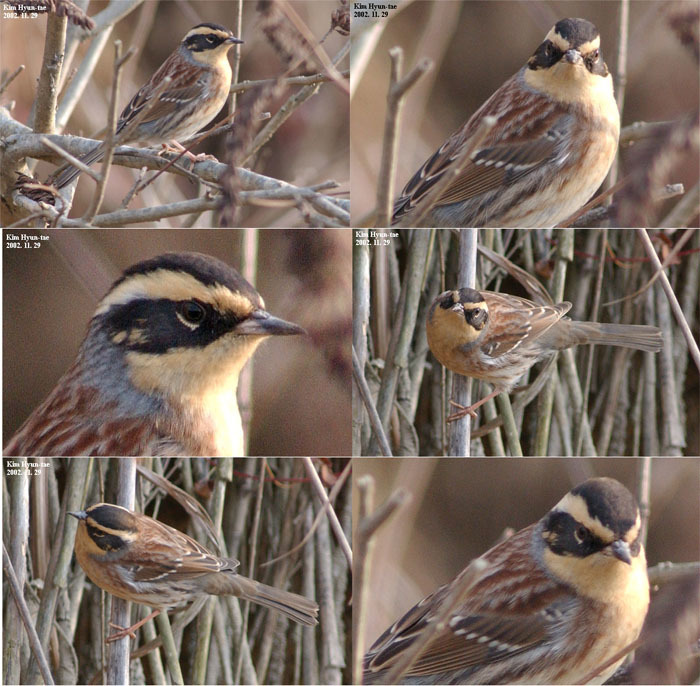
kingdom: Animalia
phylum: Chordata
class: Aves
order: Passeriformes
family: Prunellidae
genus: Prunella
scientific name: Prunella montanella
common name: Siberian accentor
